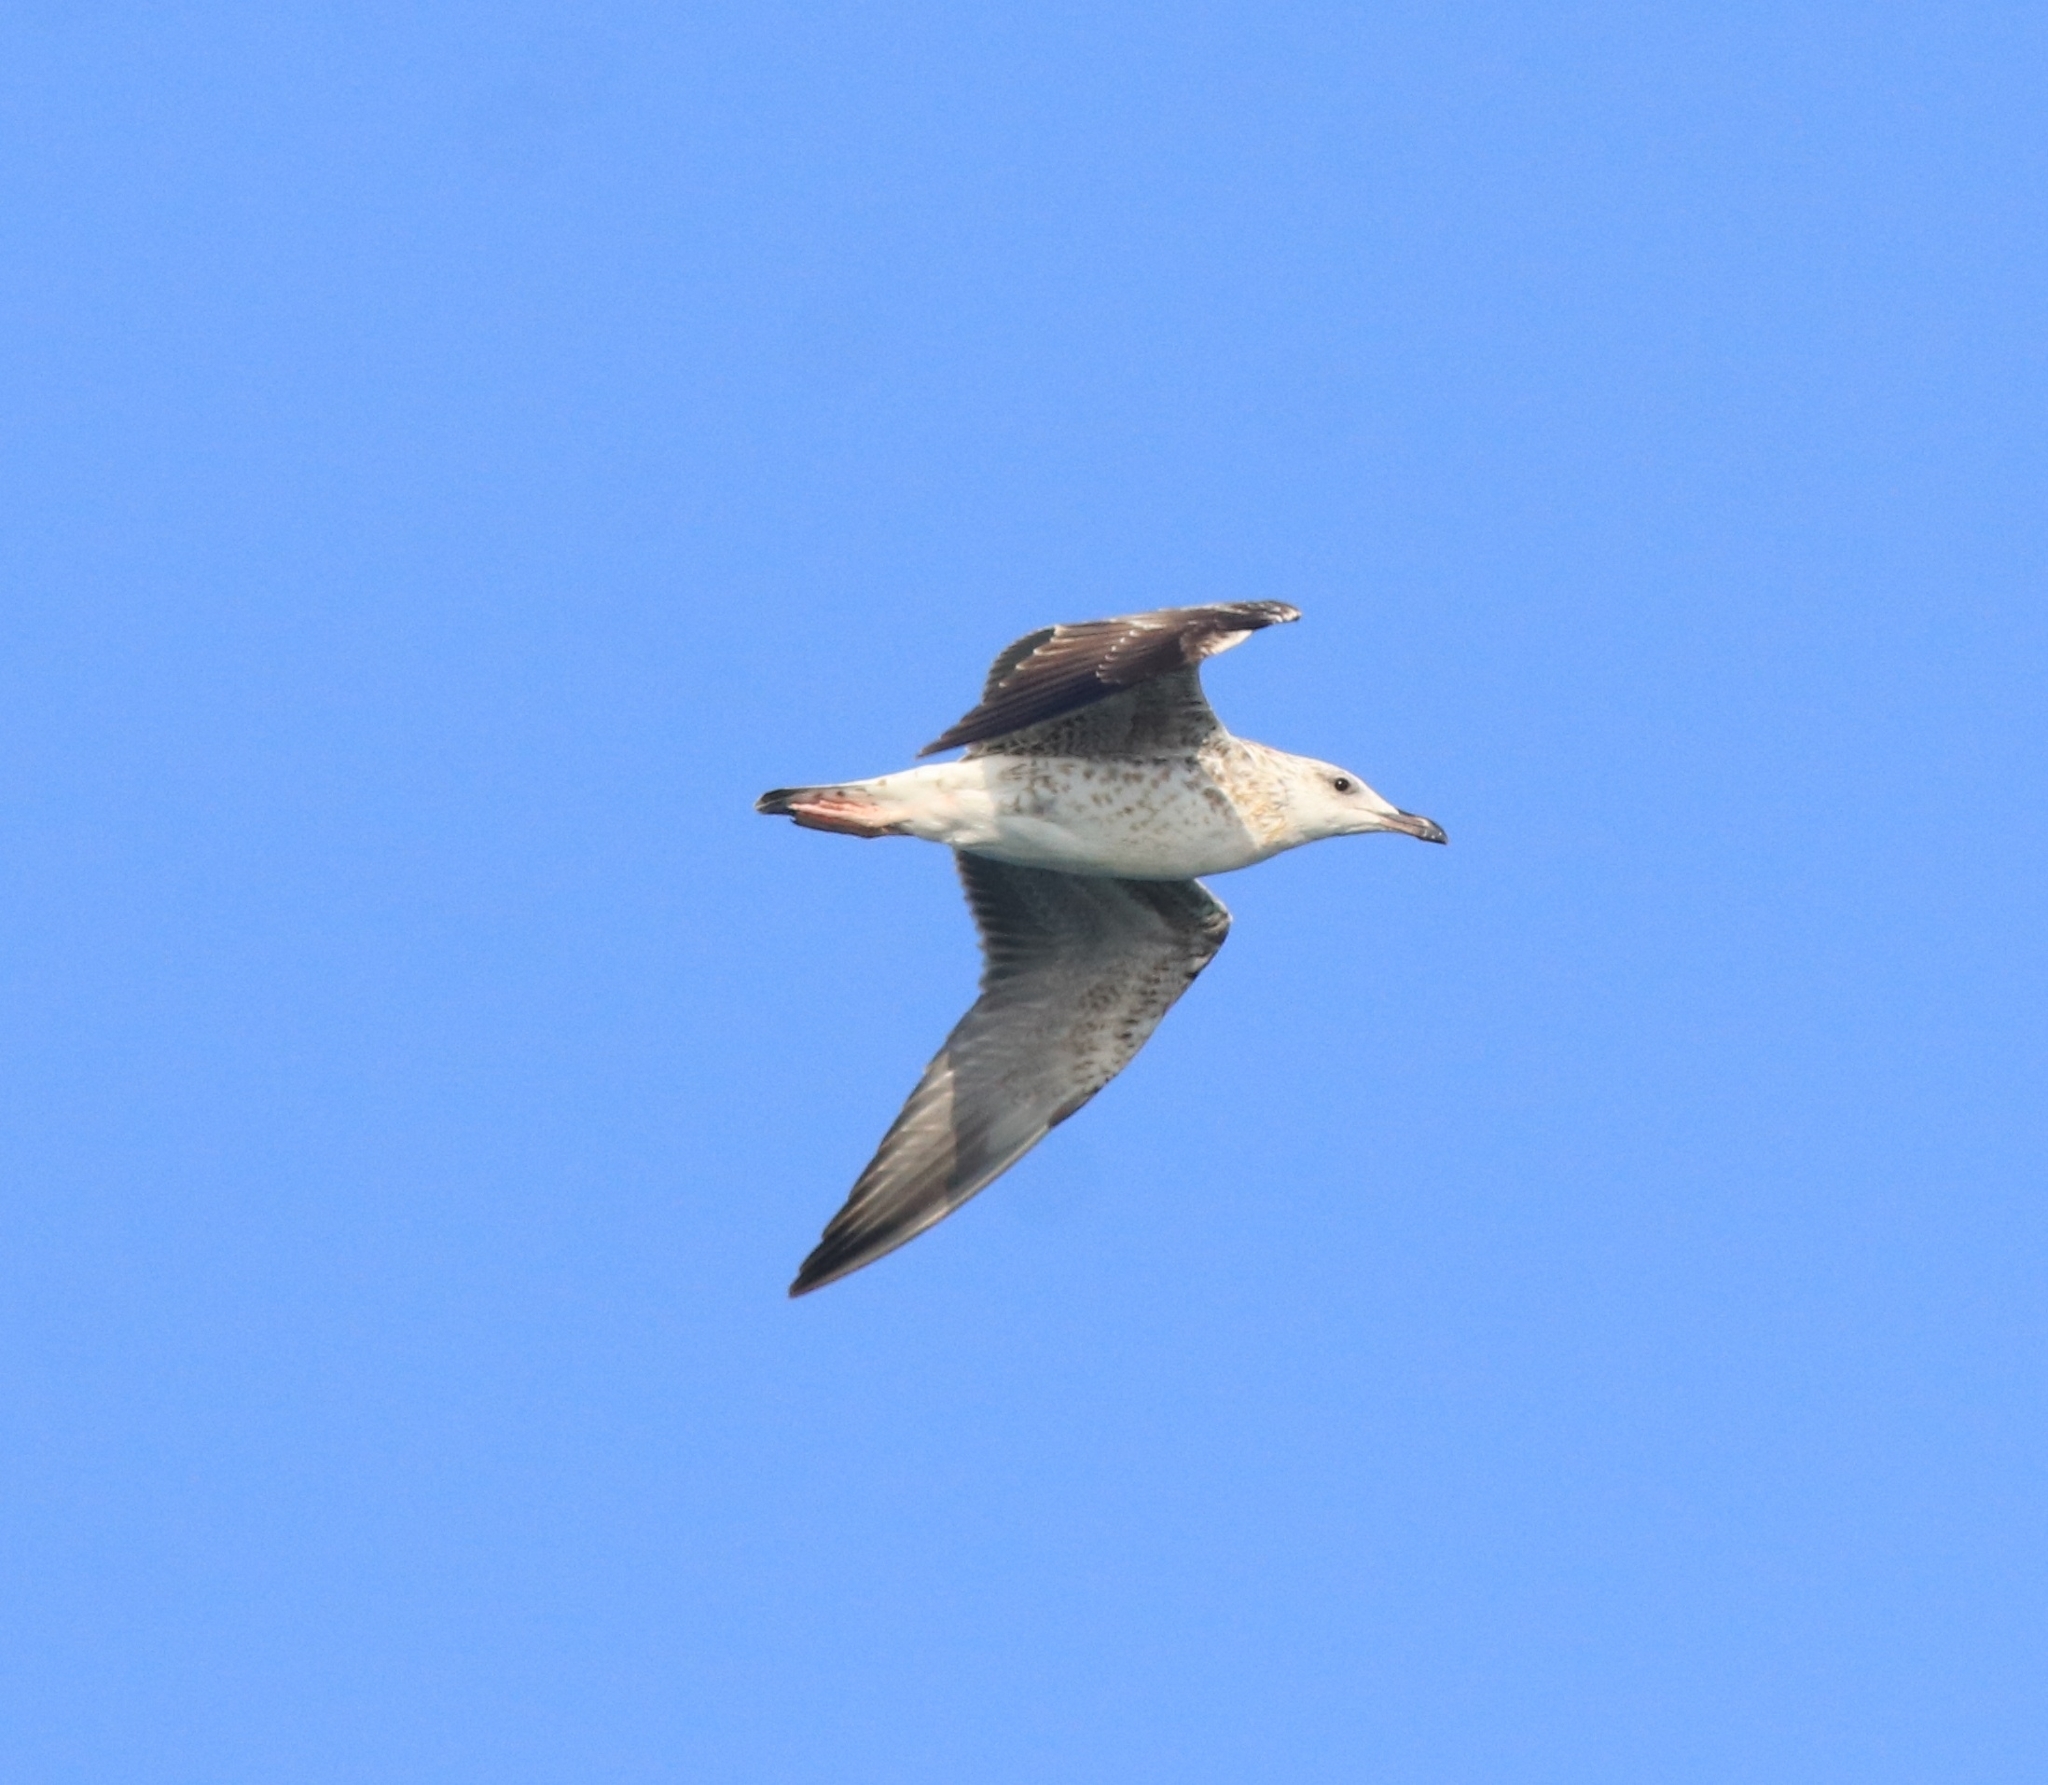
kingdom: Animalia
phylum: Chordata
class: Aves
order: Charadriiformes
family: Laridae
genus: Larus
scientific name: Larus fuscus
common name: Lesser black-backed gull
